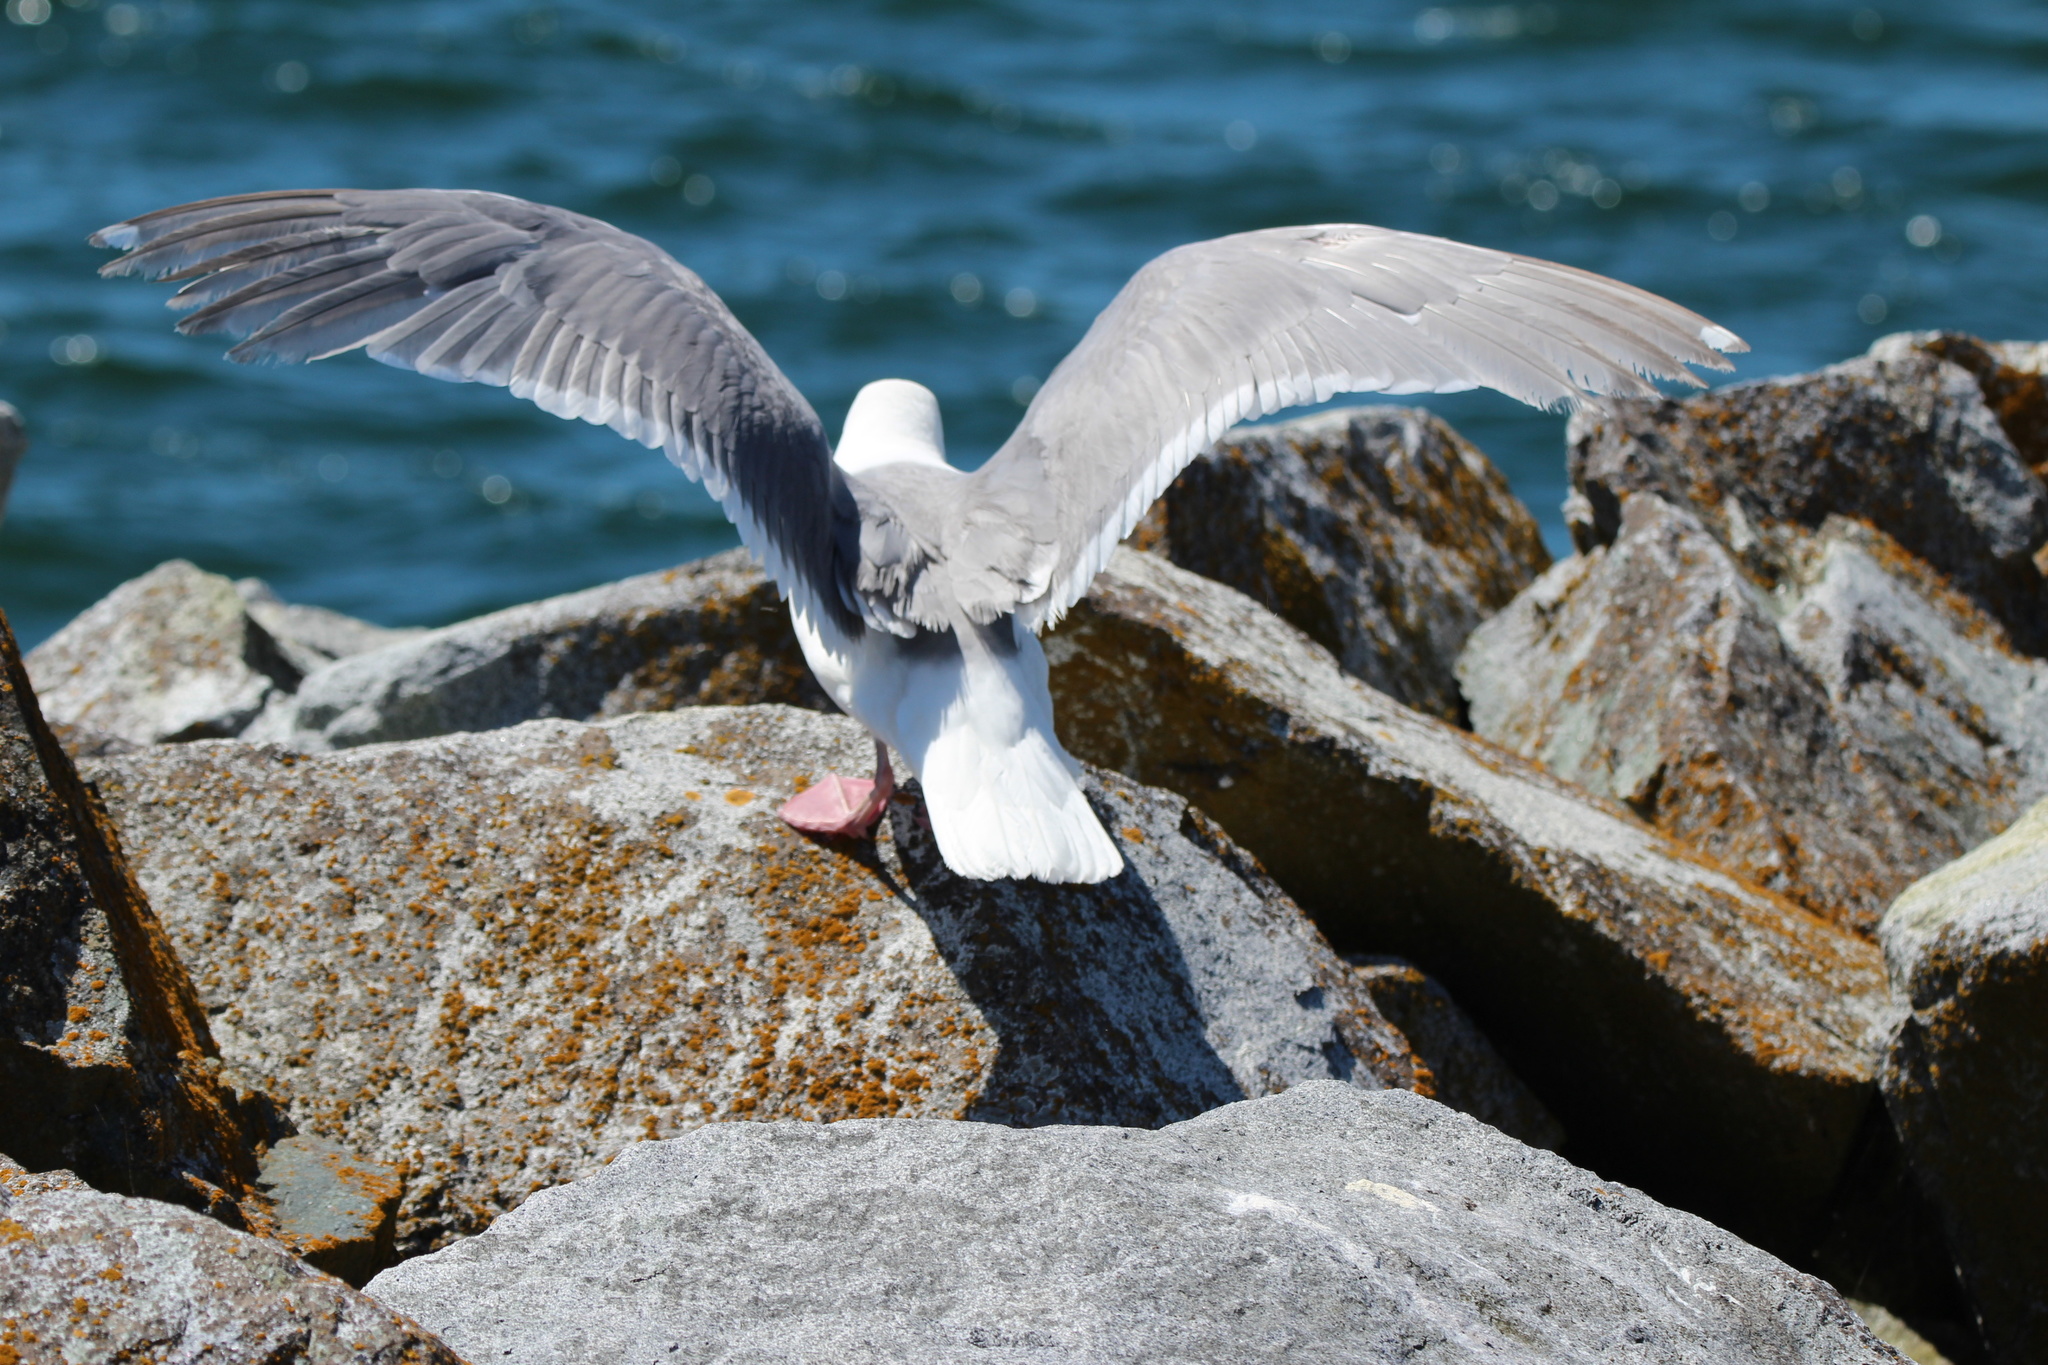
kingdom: Animalia
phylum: Chordata
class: Aves
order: Charadriiformes
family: Laridae
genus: Larus
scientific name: Larus
